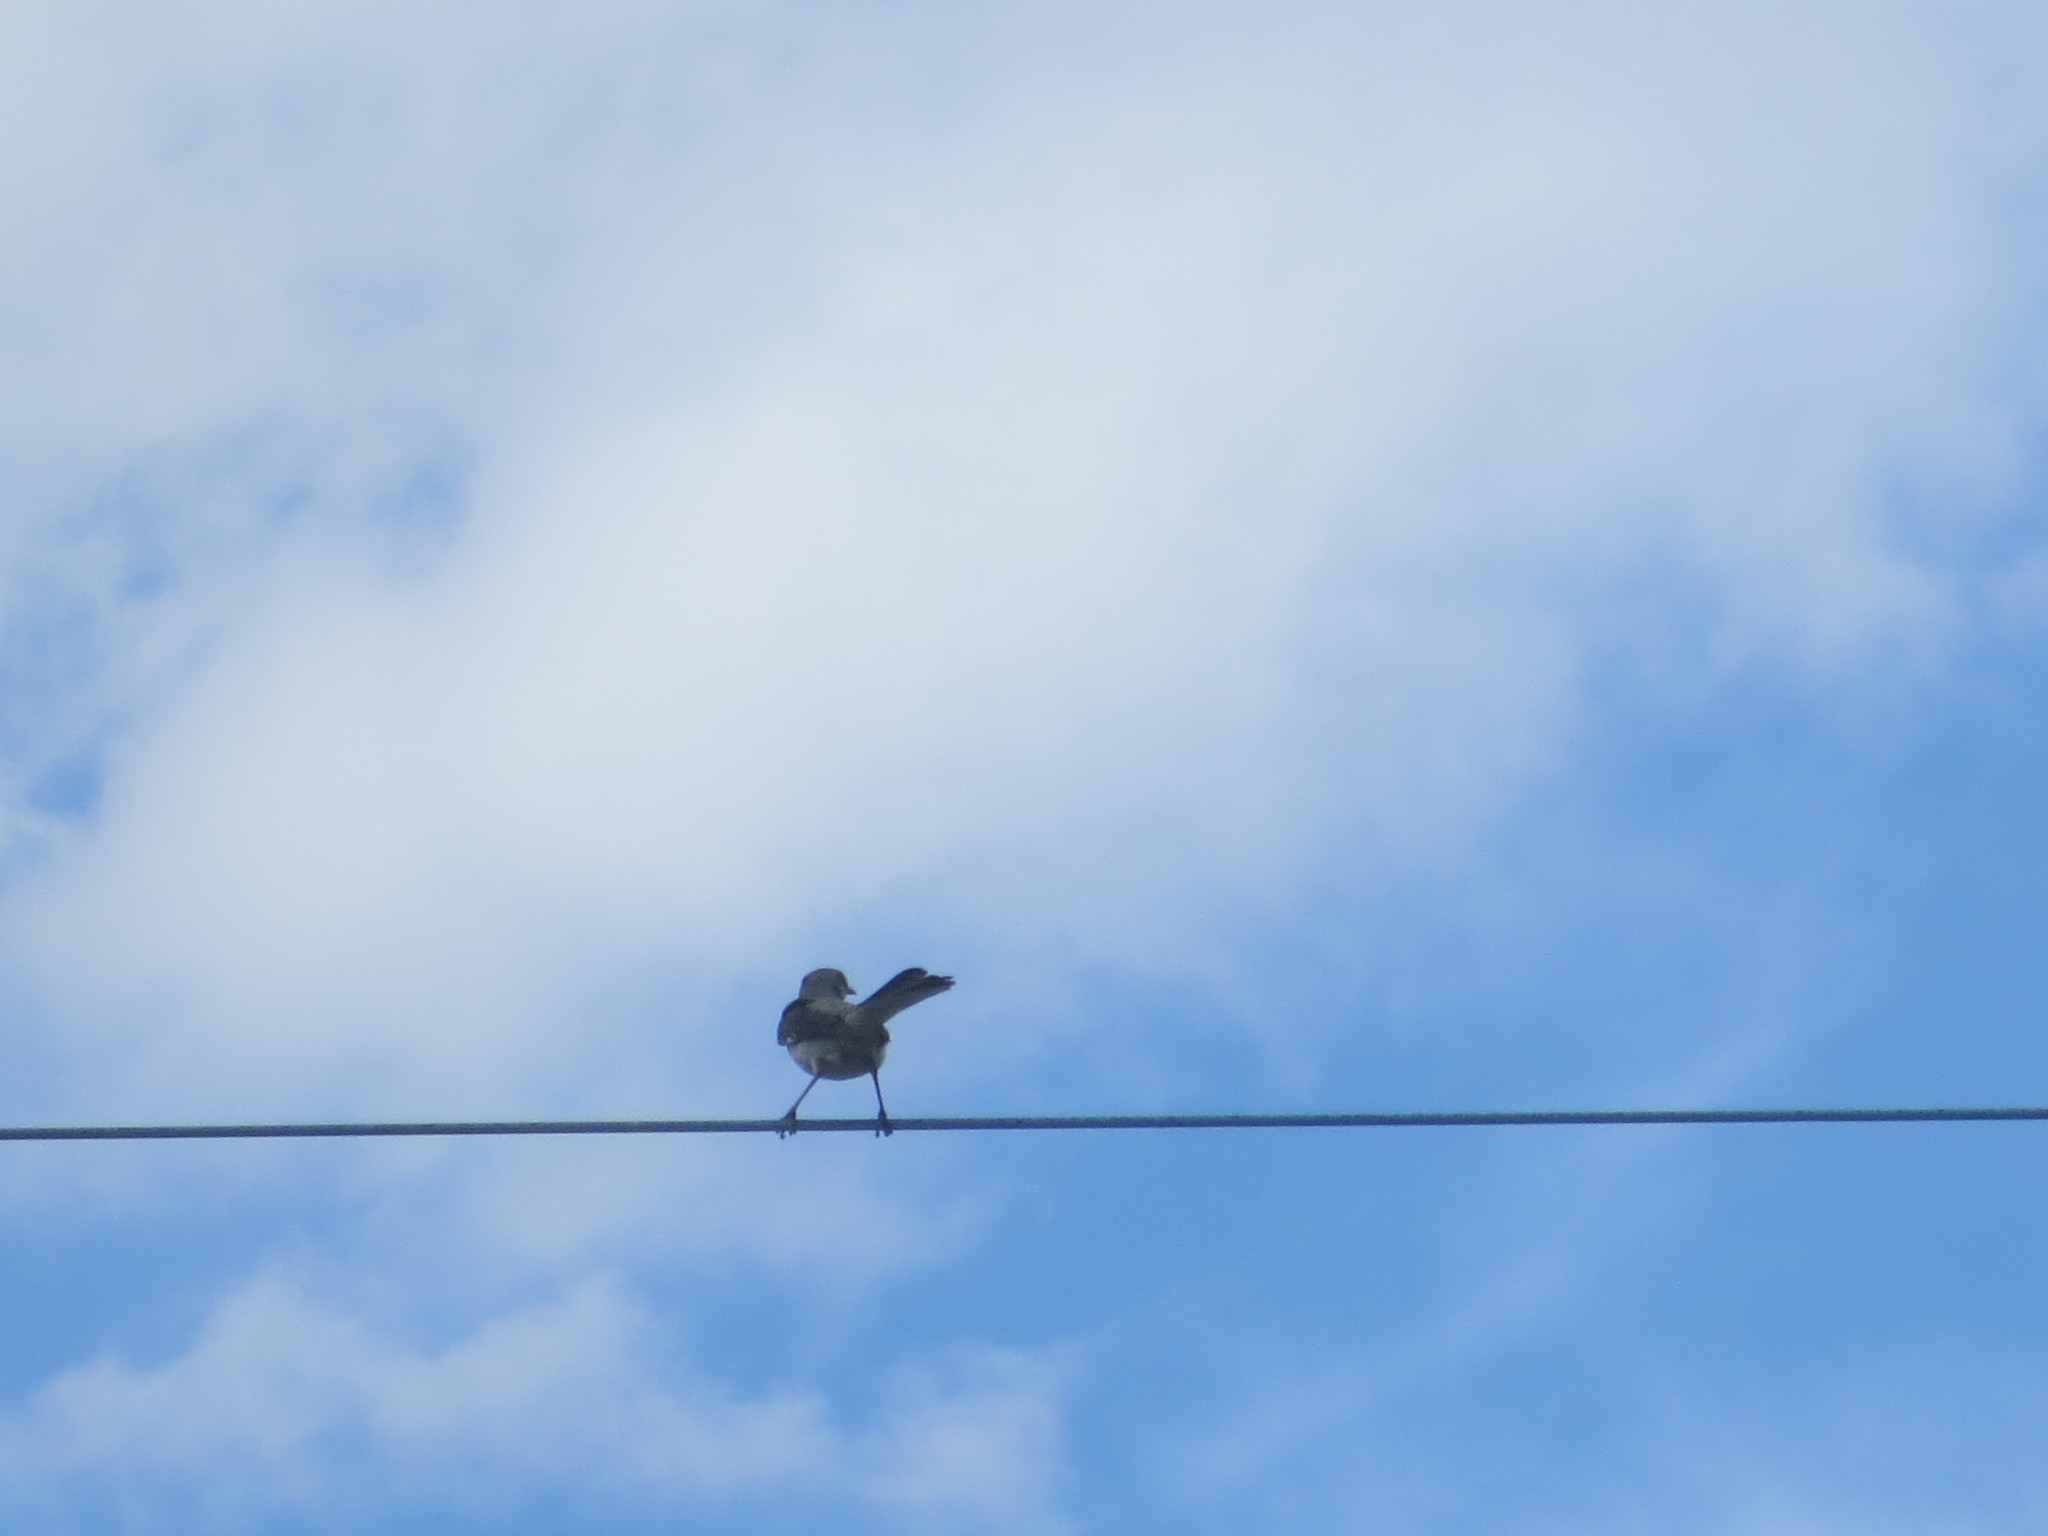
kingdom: Animalia
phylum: Chordata
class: Aves
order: Passeriformes
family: Mimidae
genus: Mimus
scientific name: Mimus polyglottos
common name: Northern mockingbird
